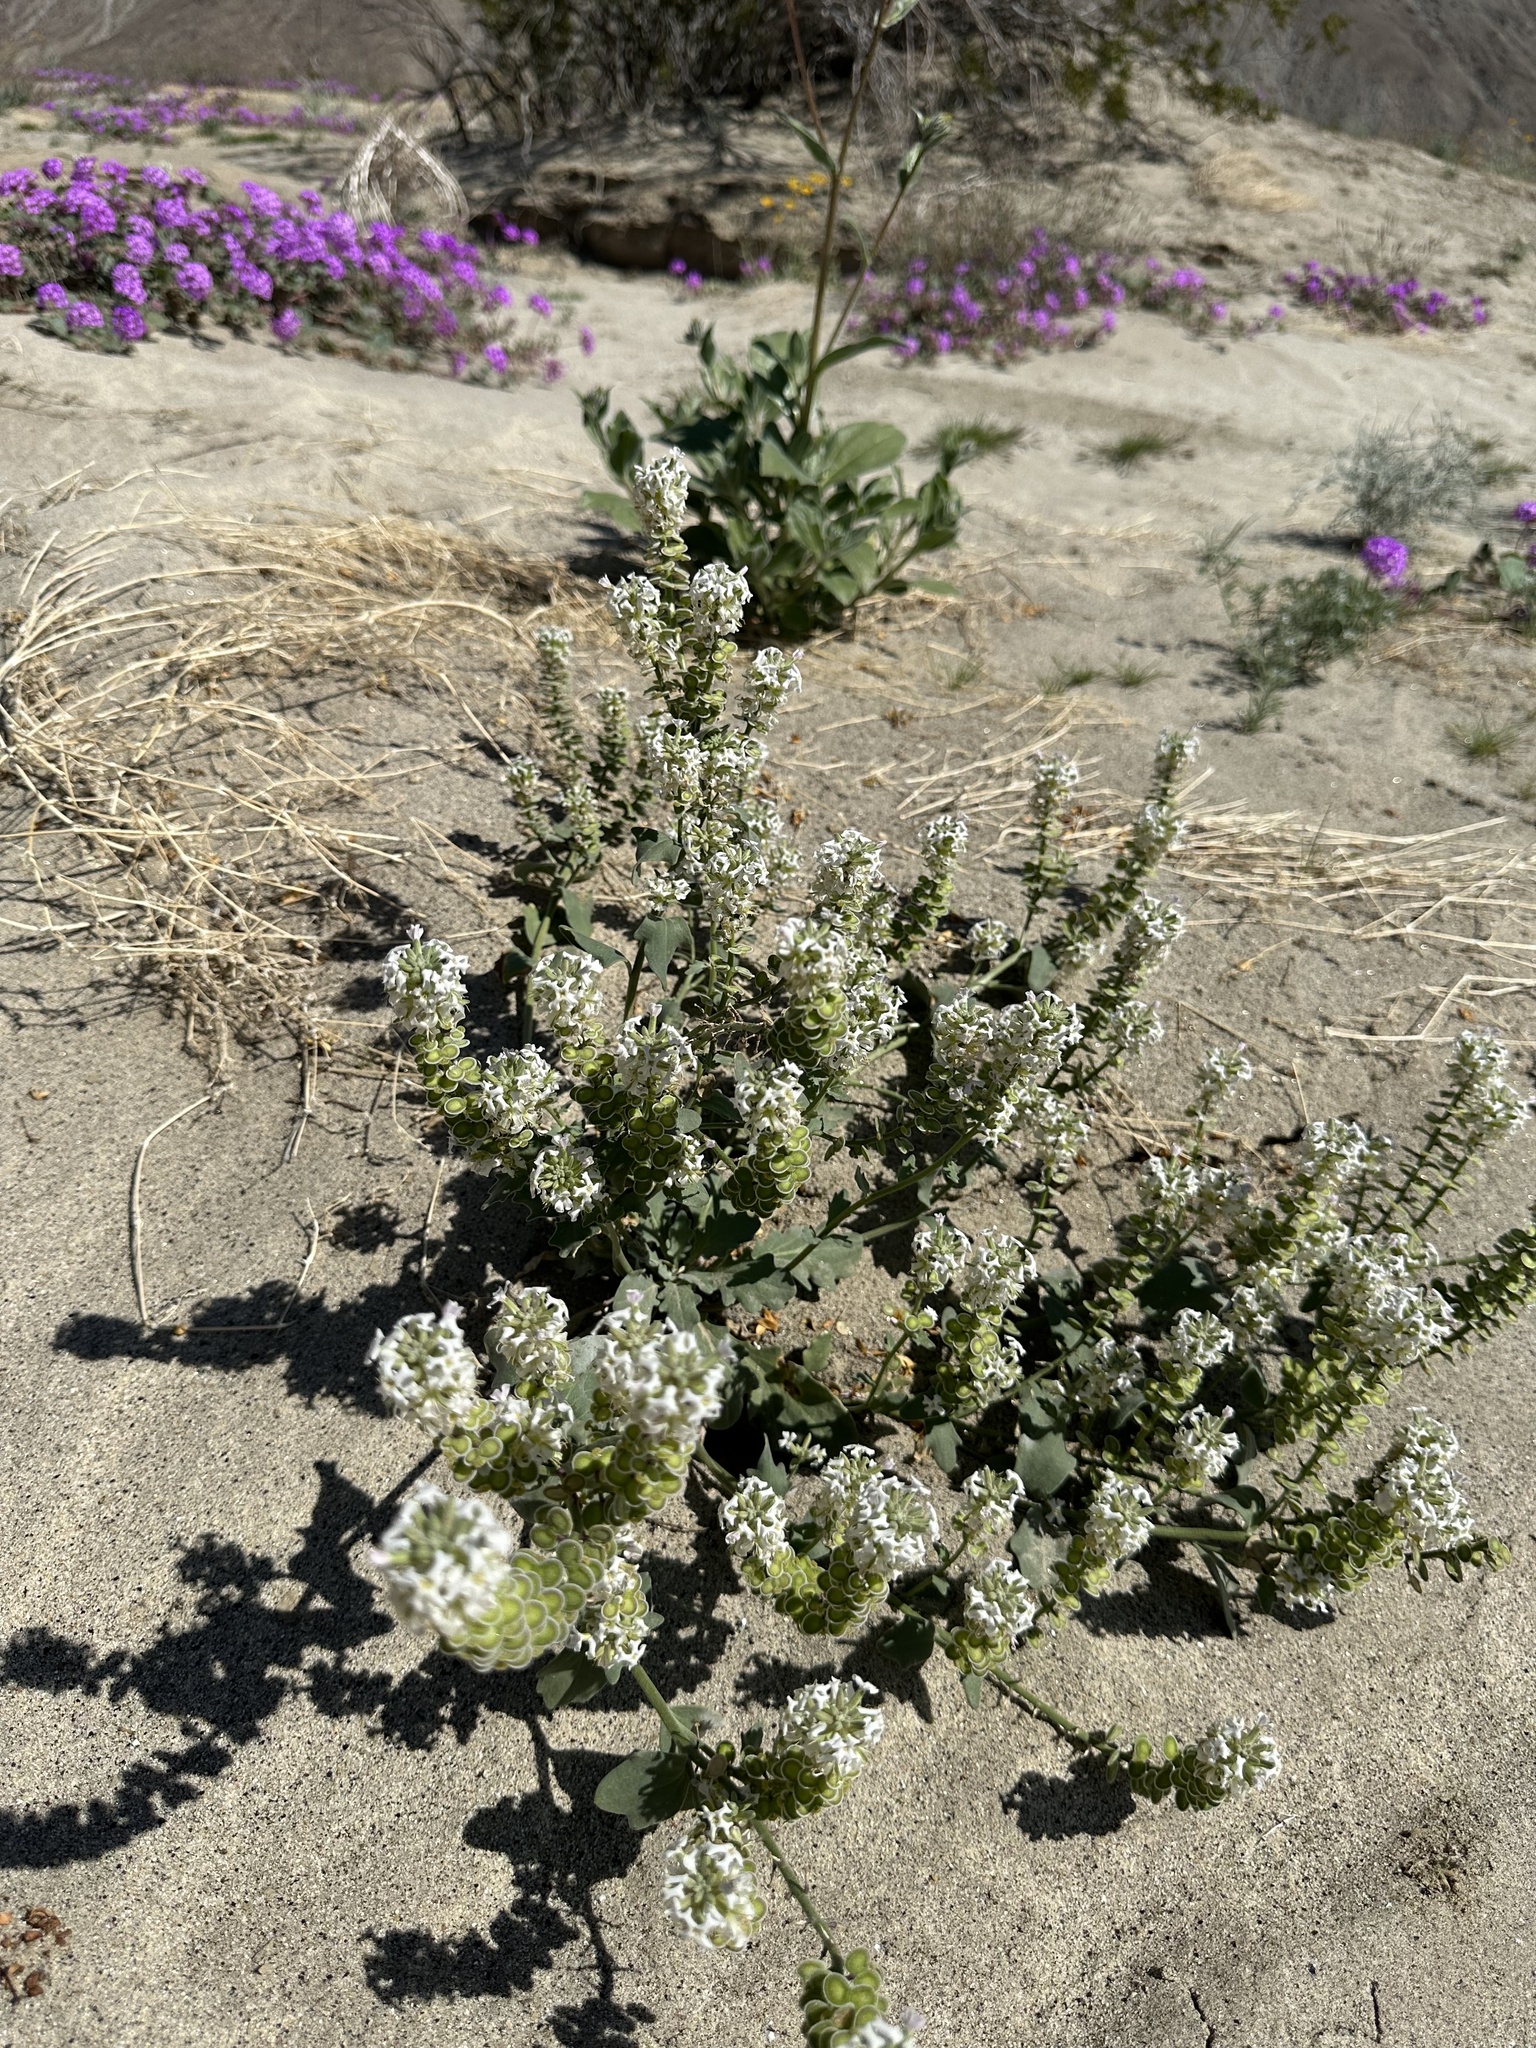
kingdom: Plantae
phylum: Tracheophyta
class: Magnoliopsida
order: Brassicales
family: Brassicaceae
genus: Dithyrea
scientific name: Dithyrea californica
